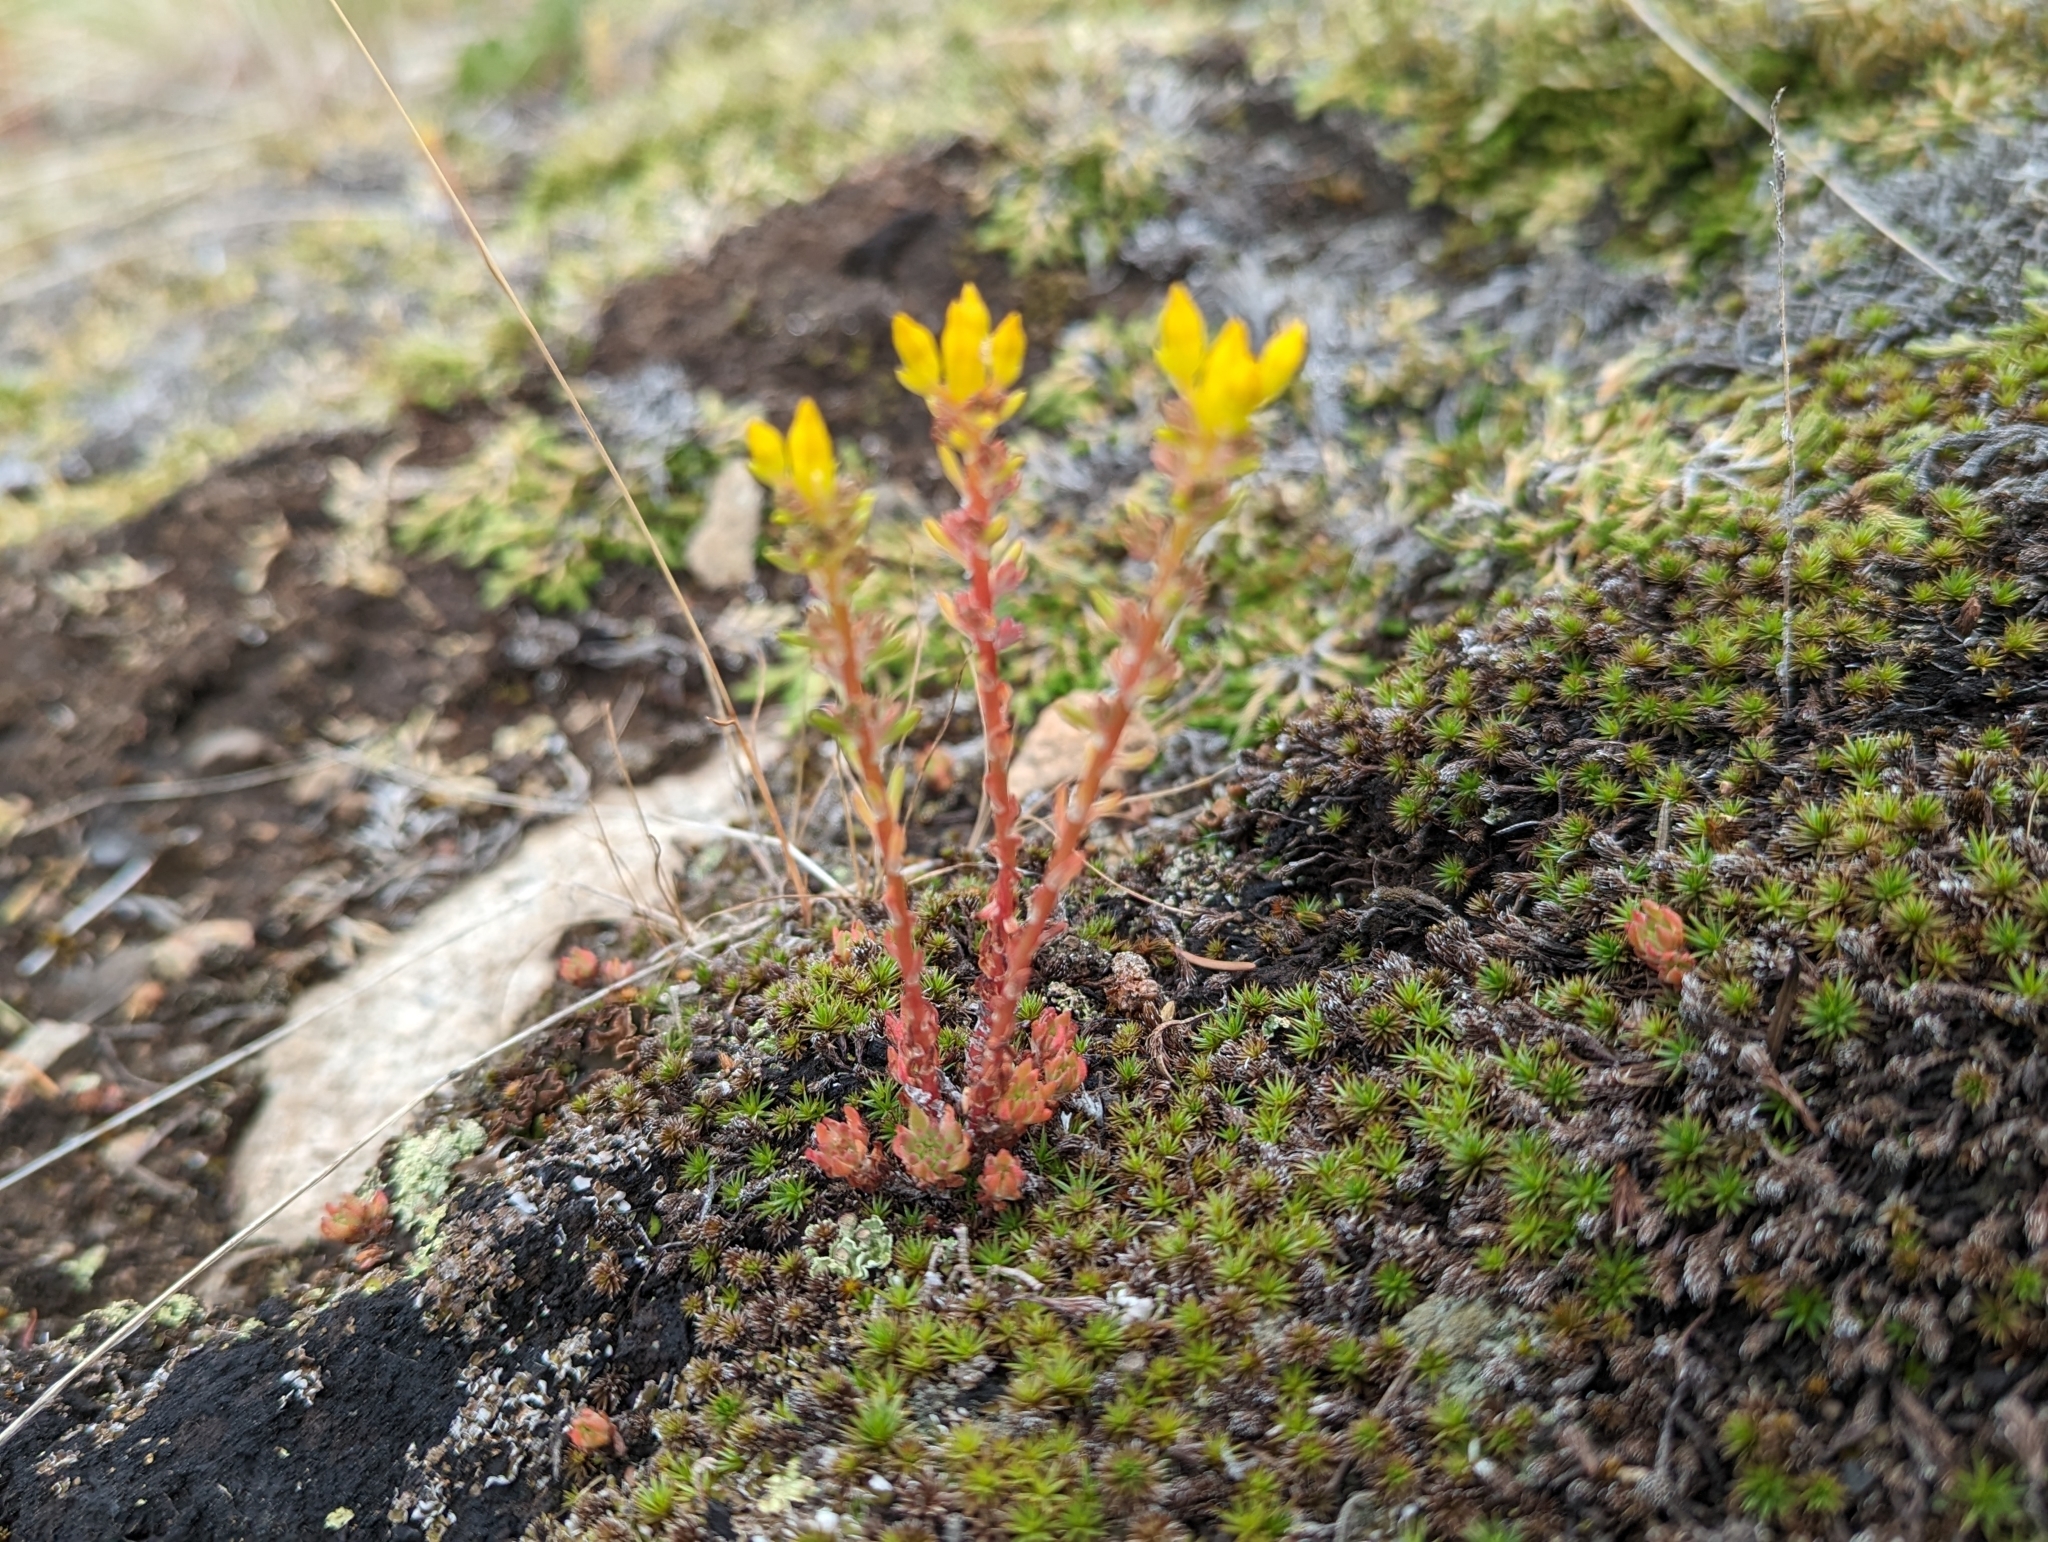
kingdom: Plantae
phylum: Tracheophyta
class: Magnoliopsida
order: Saxifragales
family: Crassulaceae
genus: Sedum
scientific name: Sedum stenopetalum
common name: Narrow-petaled stonecrop
